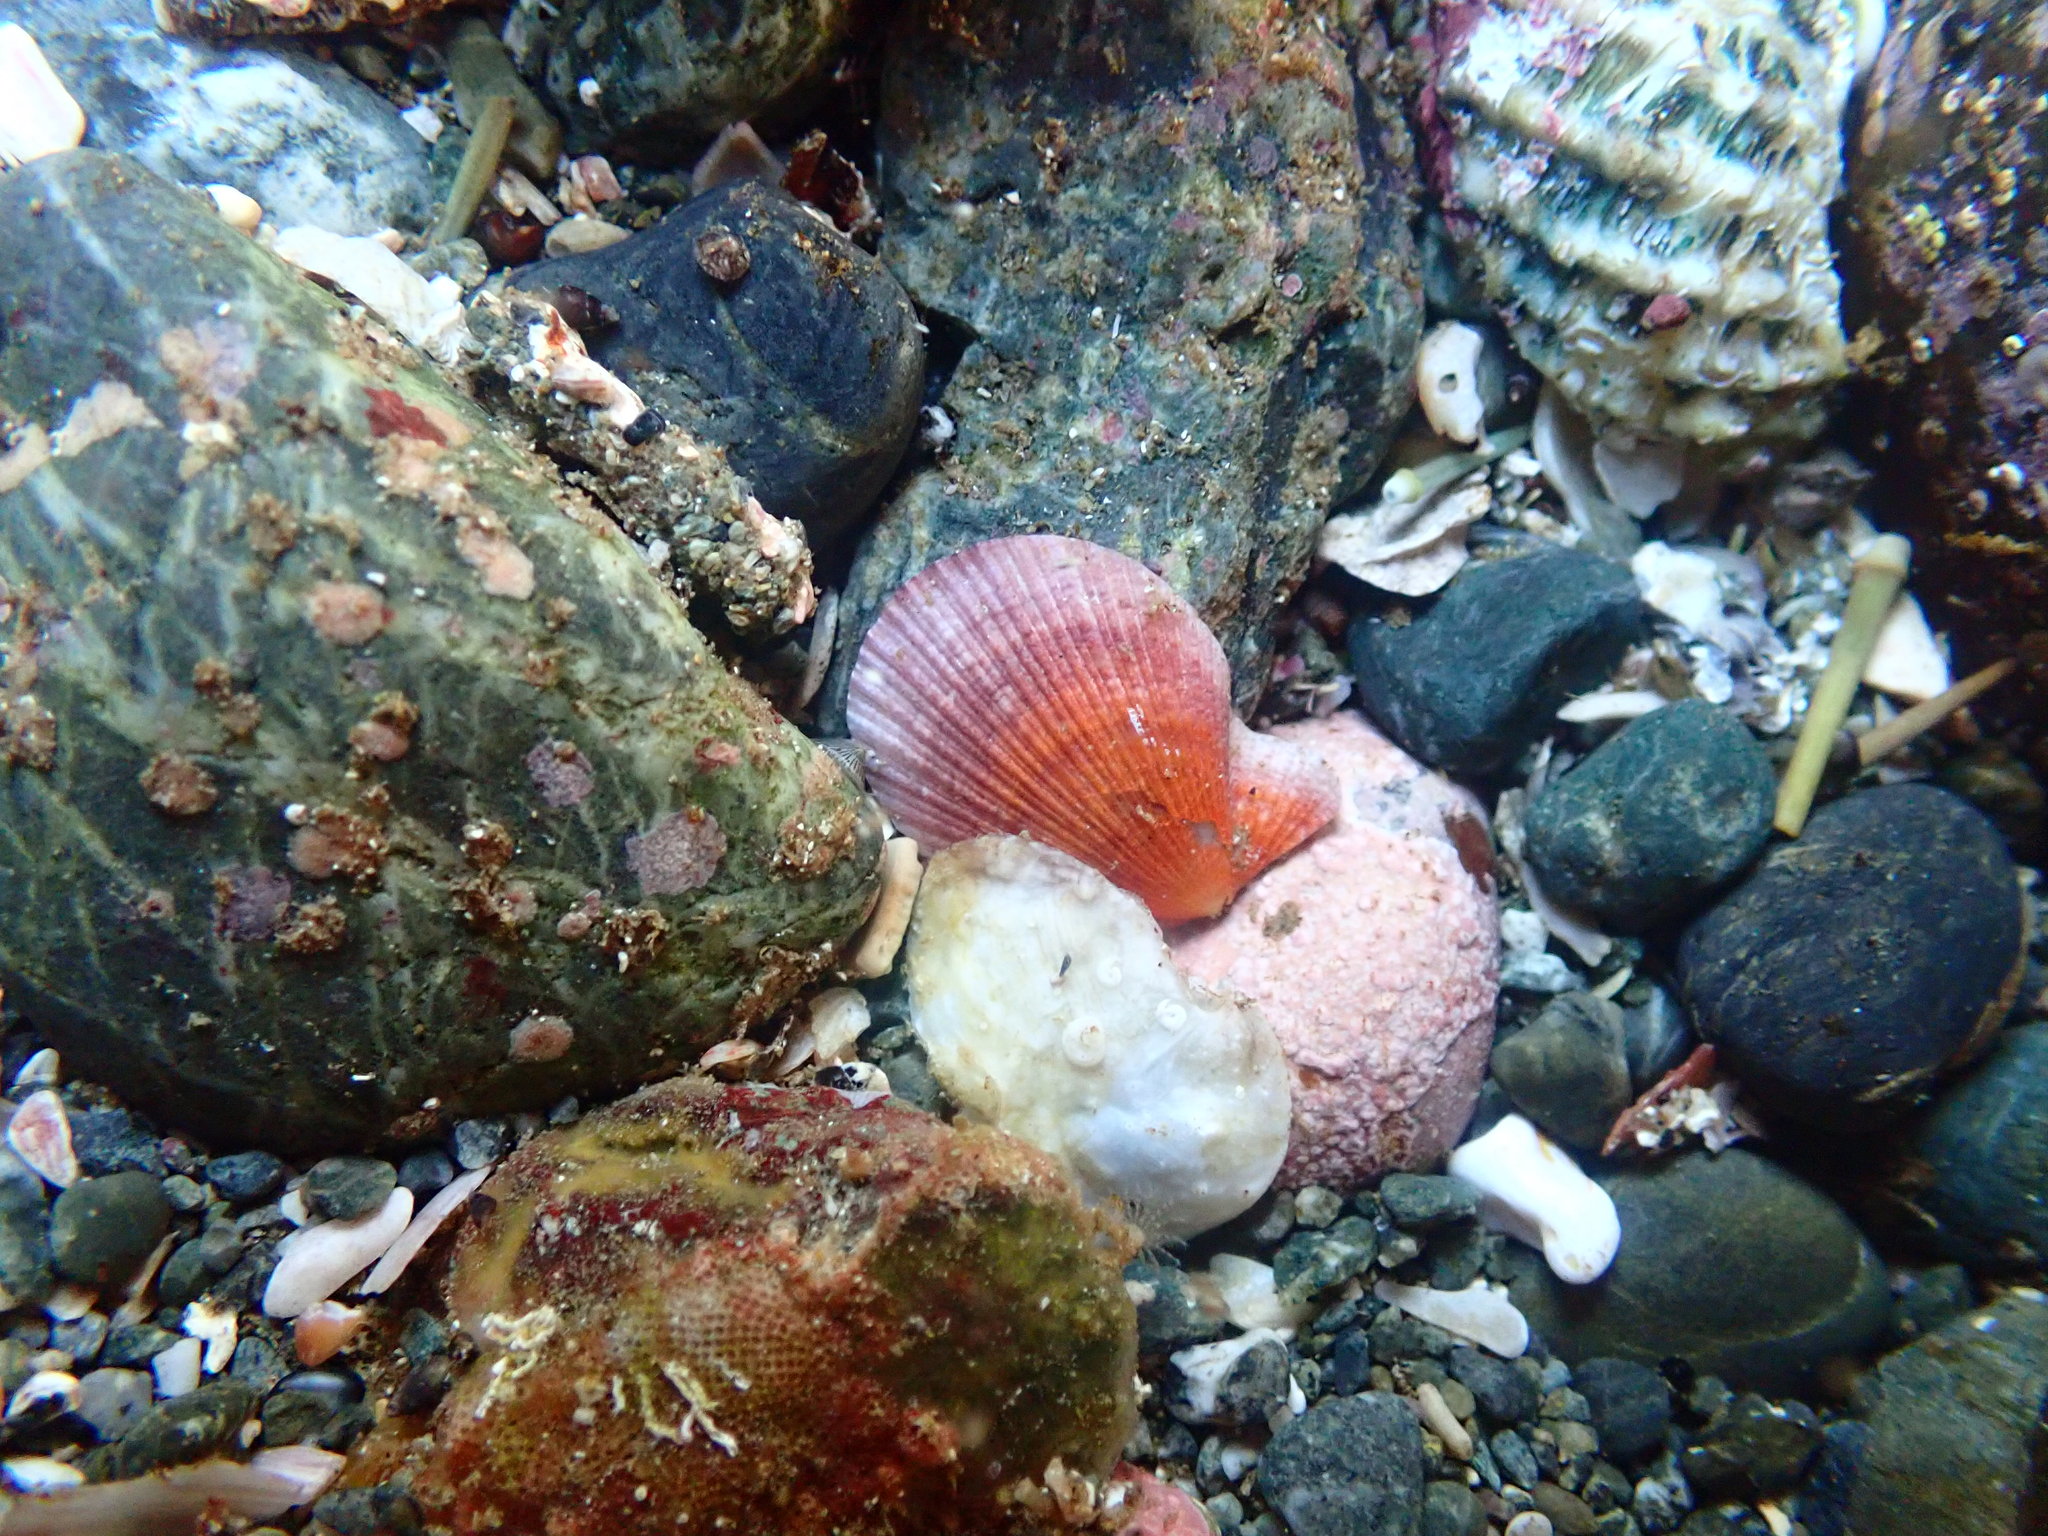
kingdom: Animalia
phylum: Mollusca
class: Bivalvia
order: Pectinida
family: Pectinidae
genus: Talochlamys
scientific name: Talochlamys zelandiae
